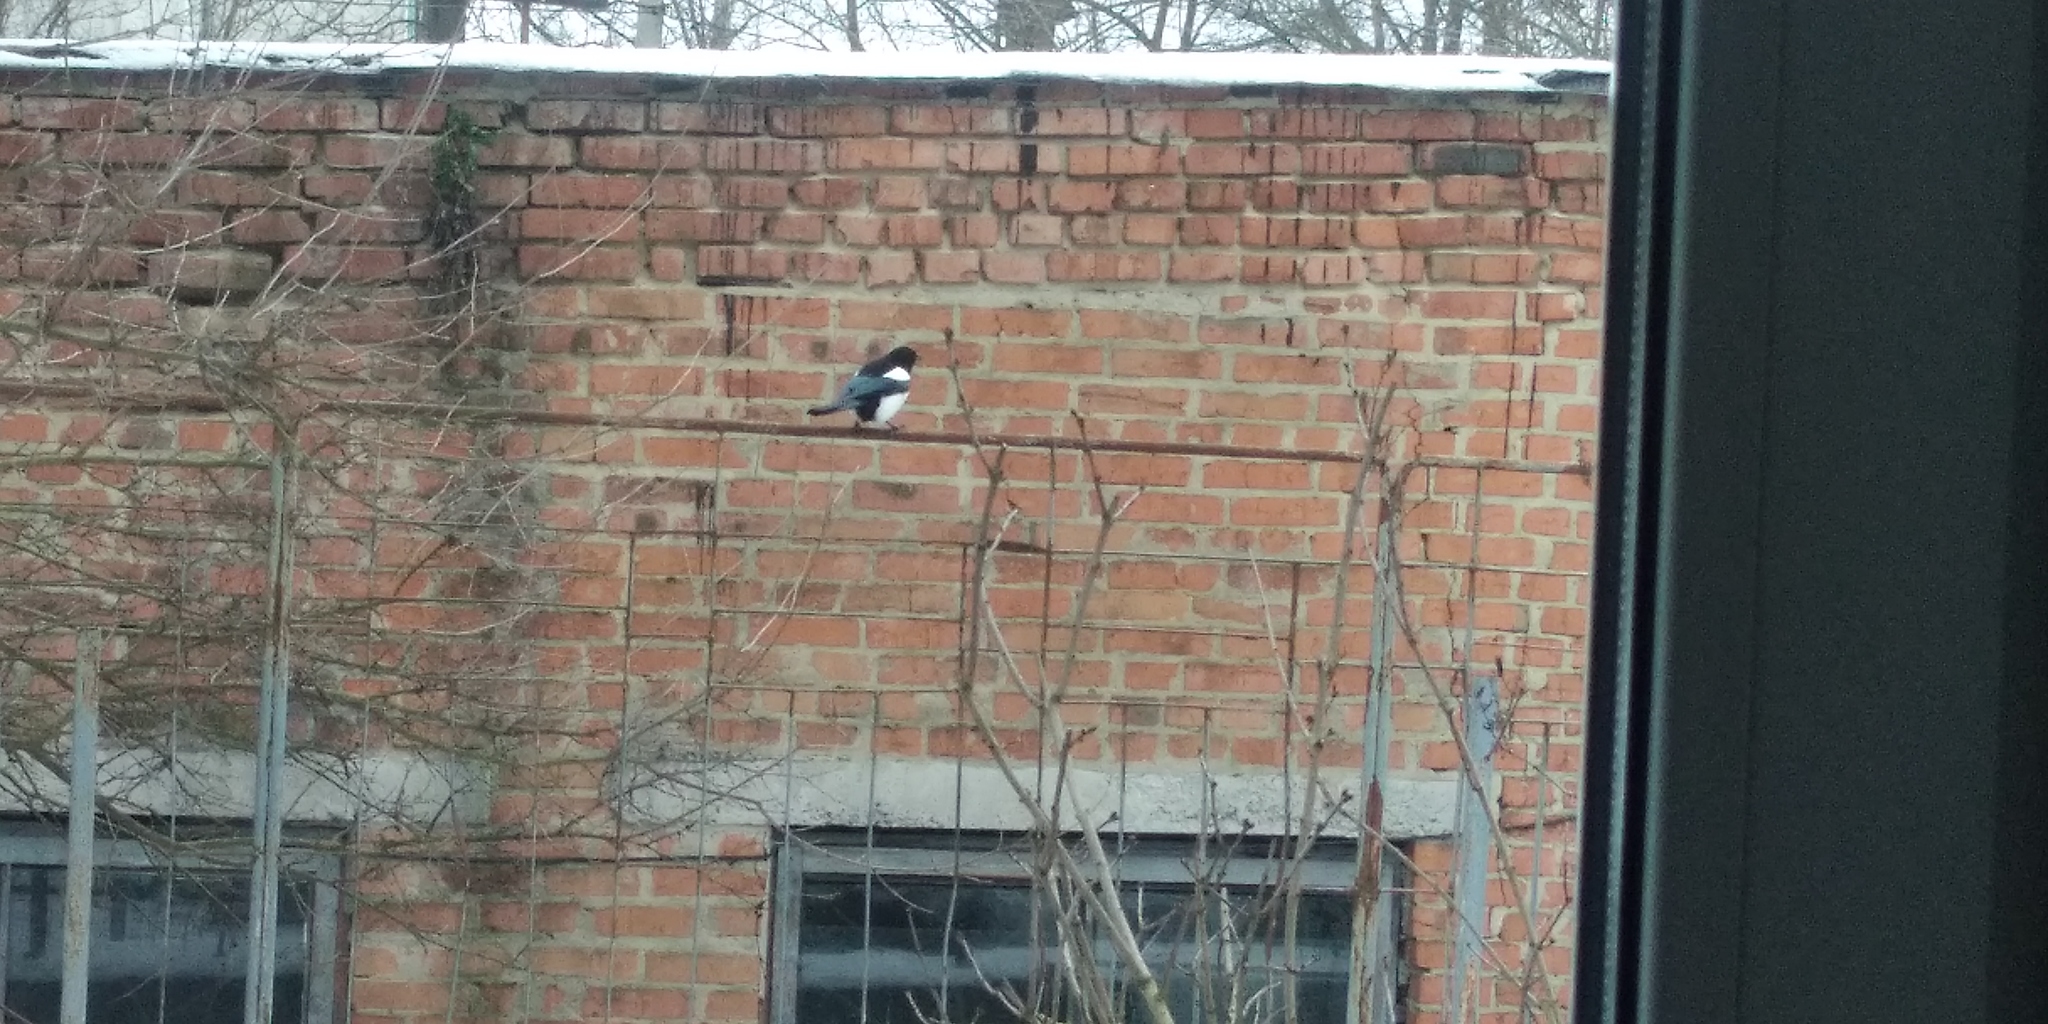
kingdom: Animalia
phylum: Chordata
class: Aves
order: Passeriformes
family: Corvidae
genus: Pica
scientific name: Pica pica
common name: Eurasian magpie
